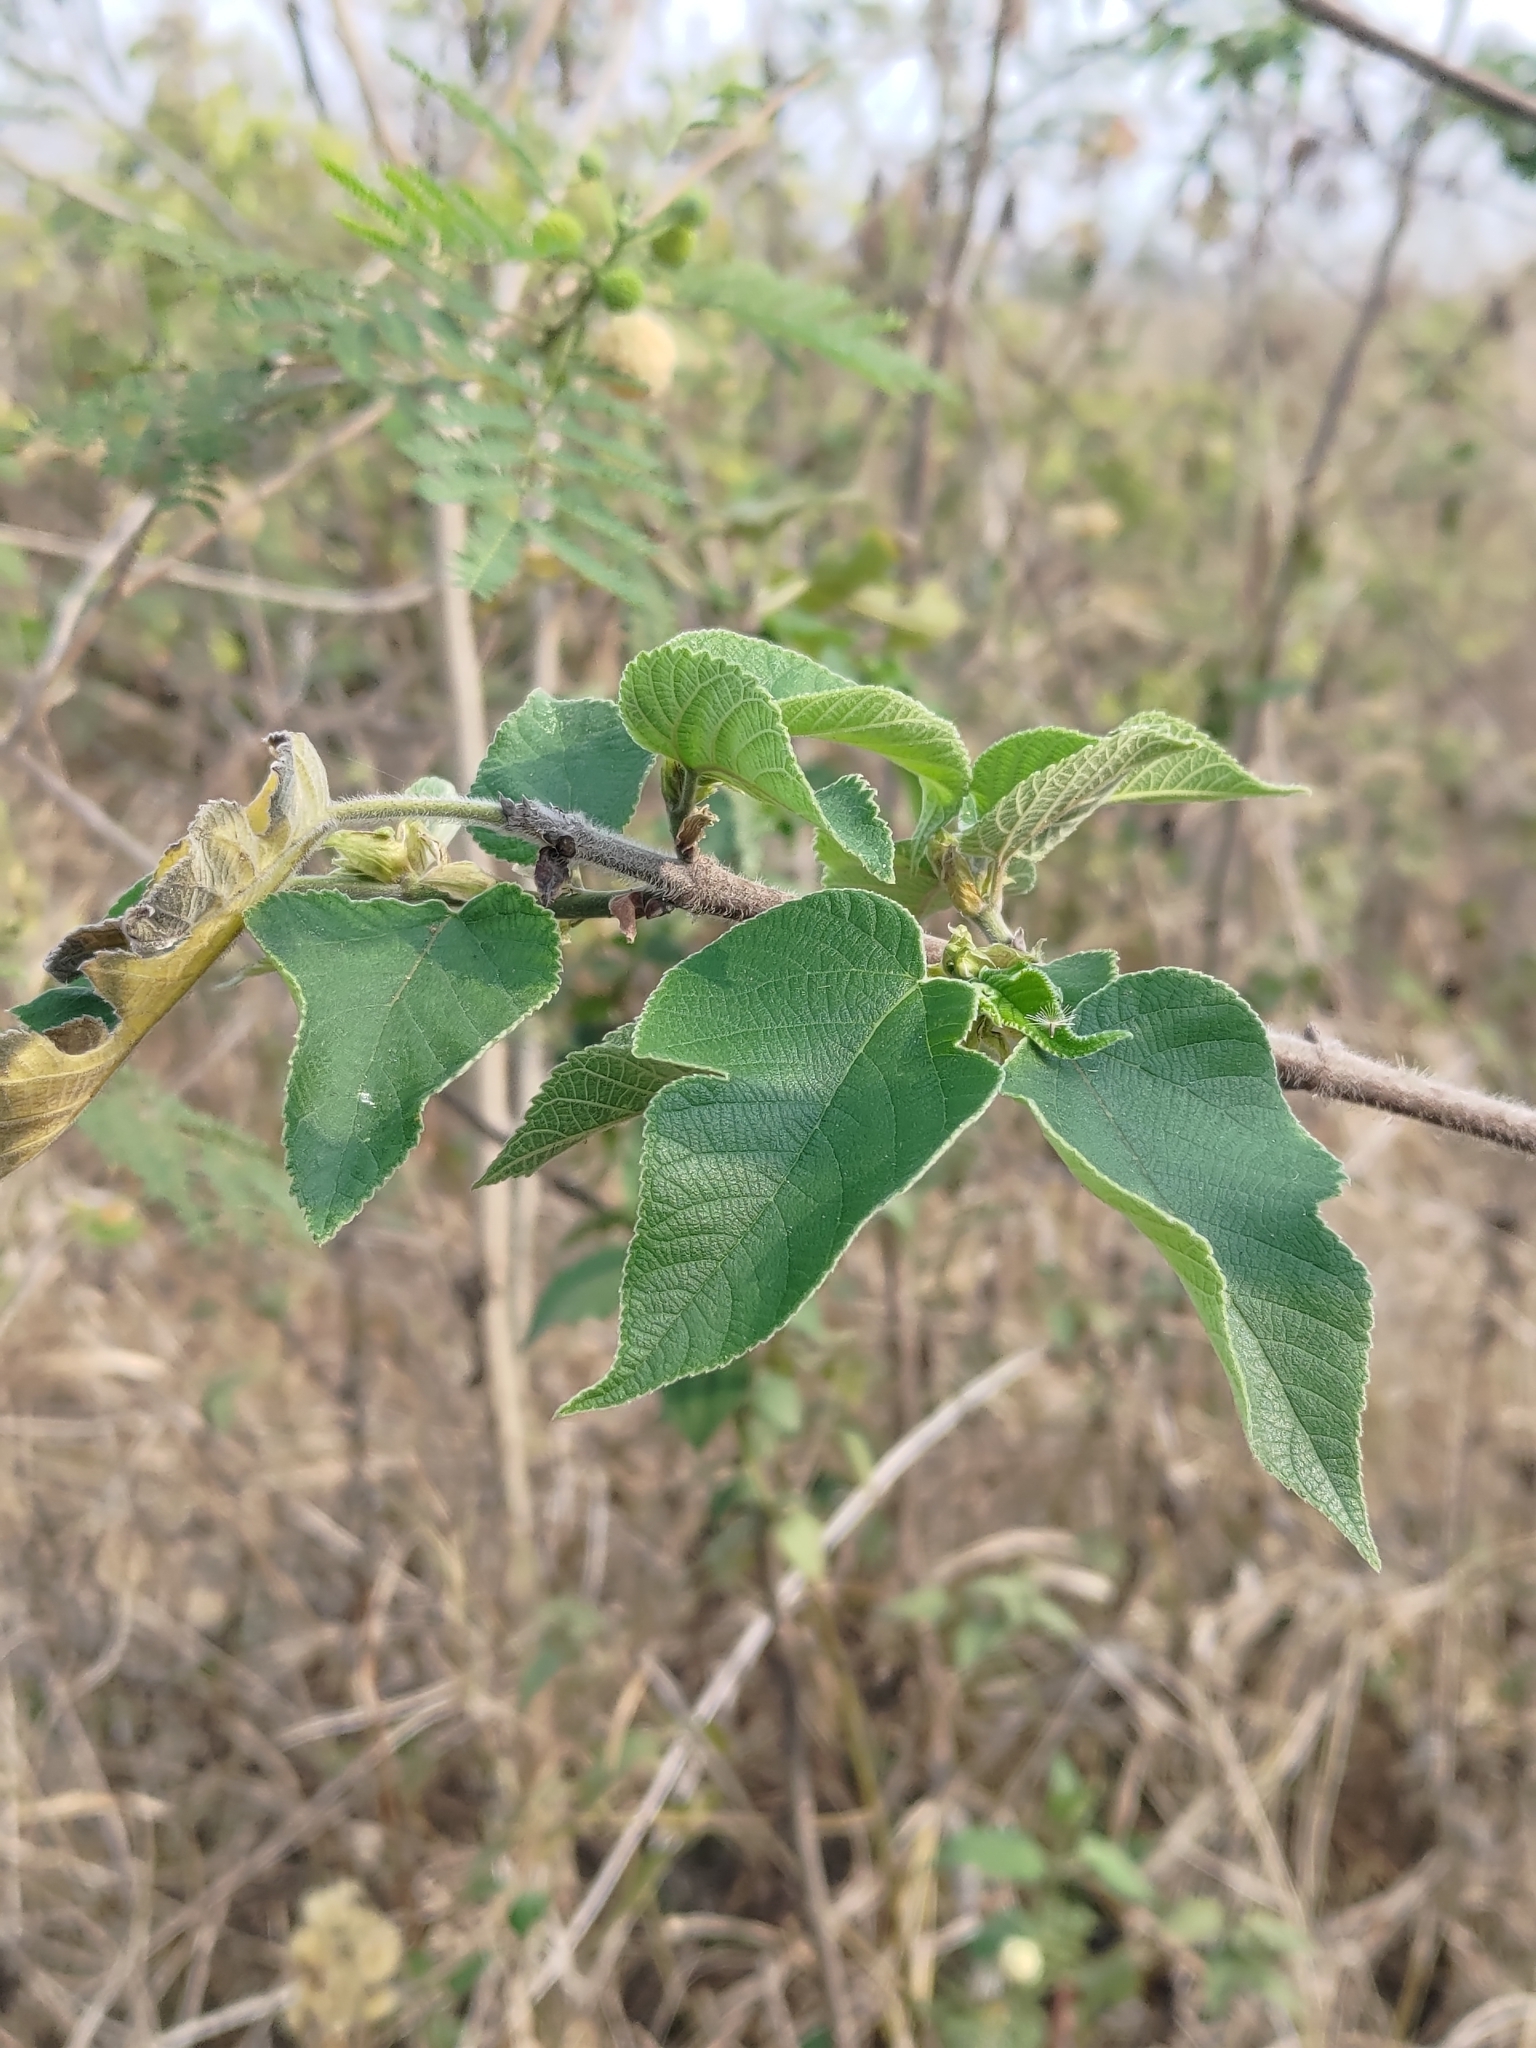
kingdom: Plantae
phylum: Tracheophyta
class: Magnoliopsida
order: Rosales
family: Moraceae
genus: Broussonetia
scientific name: Broussonetia papyrifera
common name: Paper mulberry
